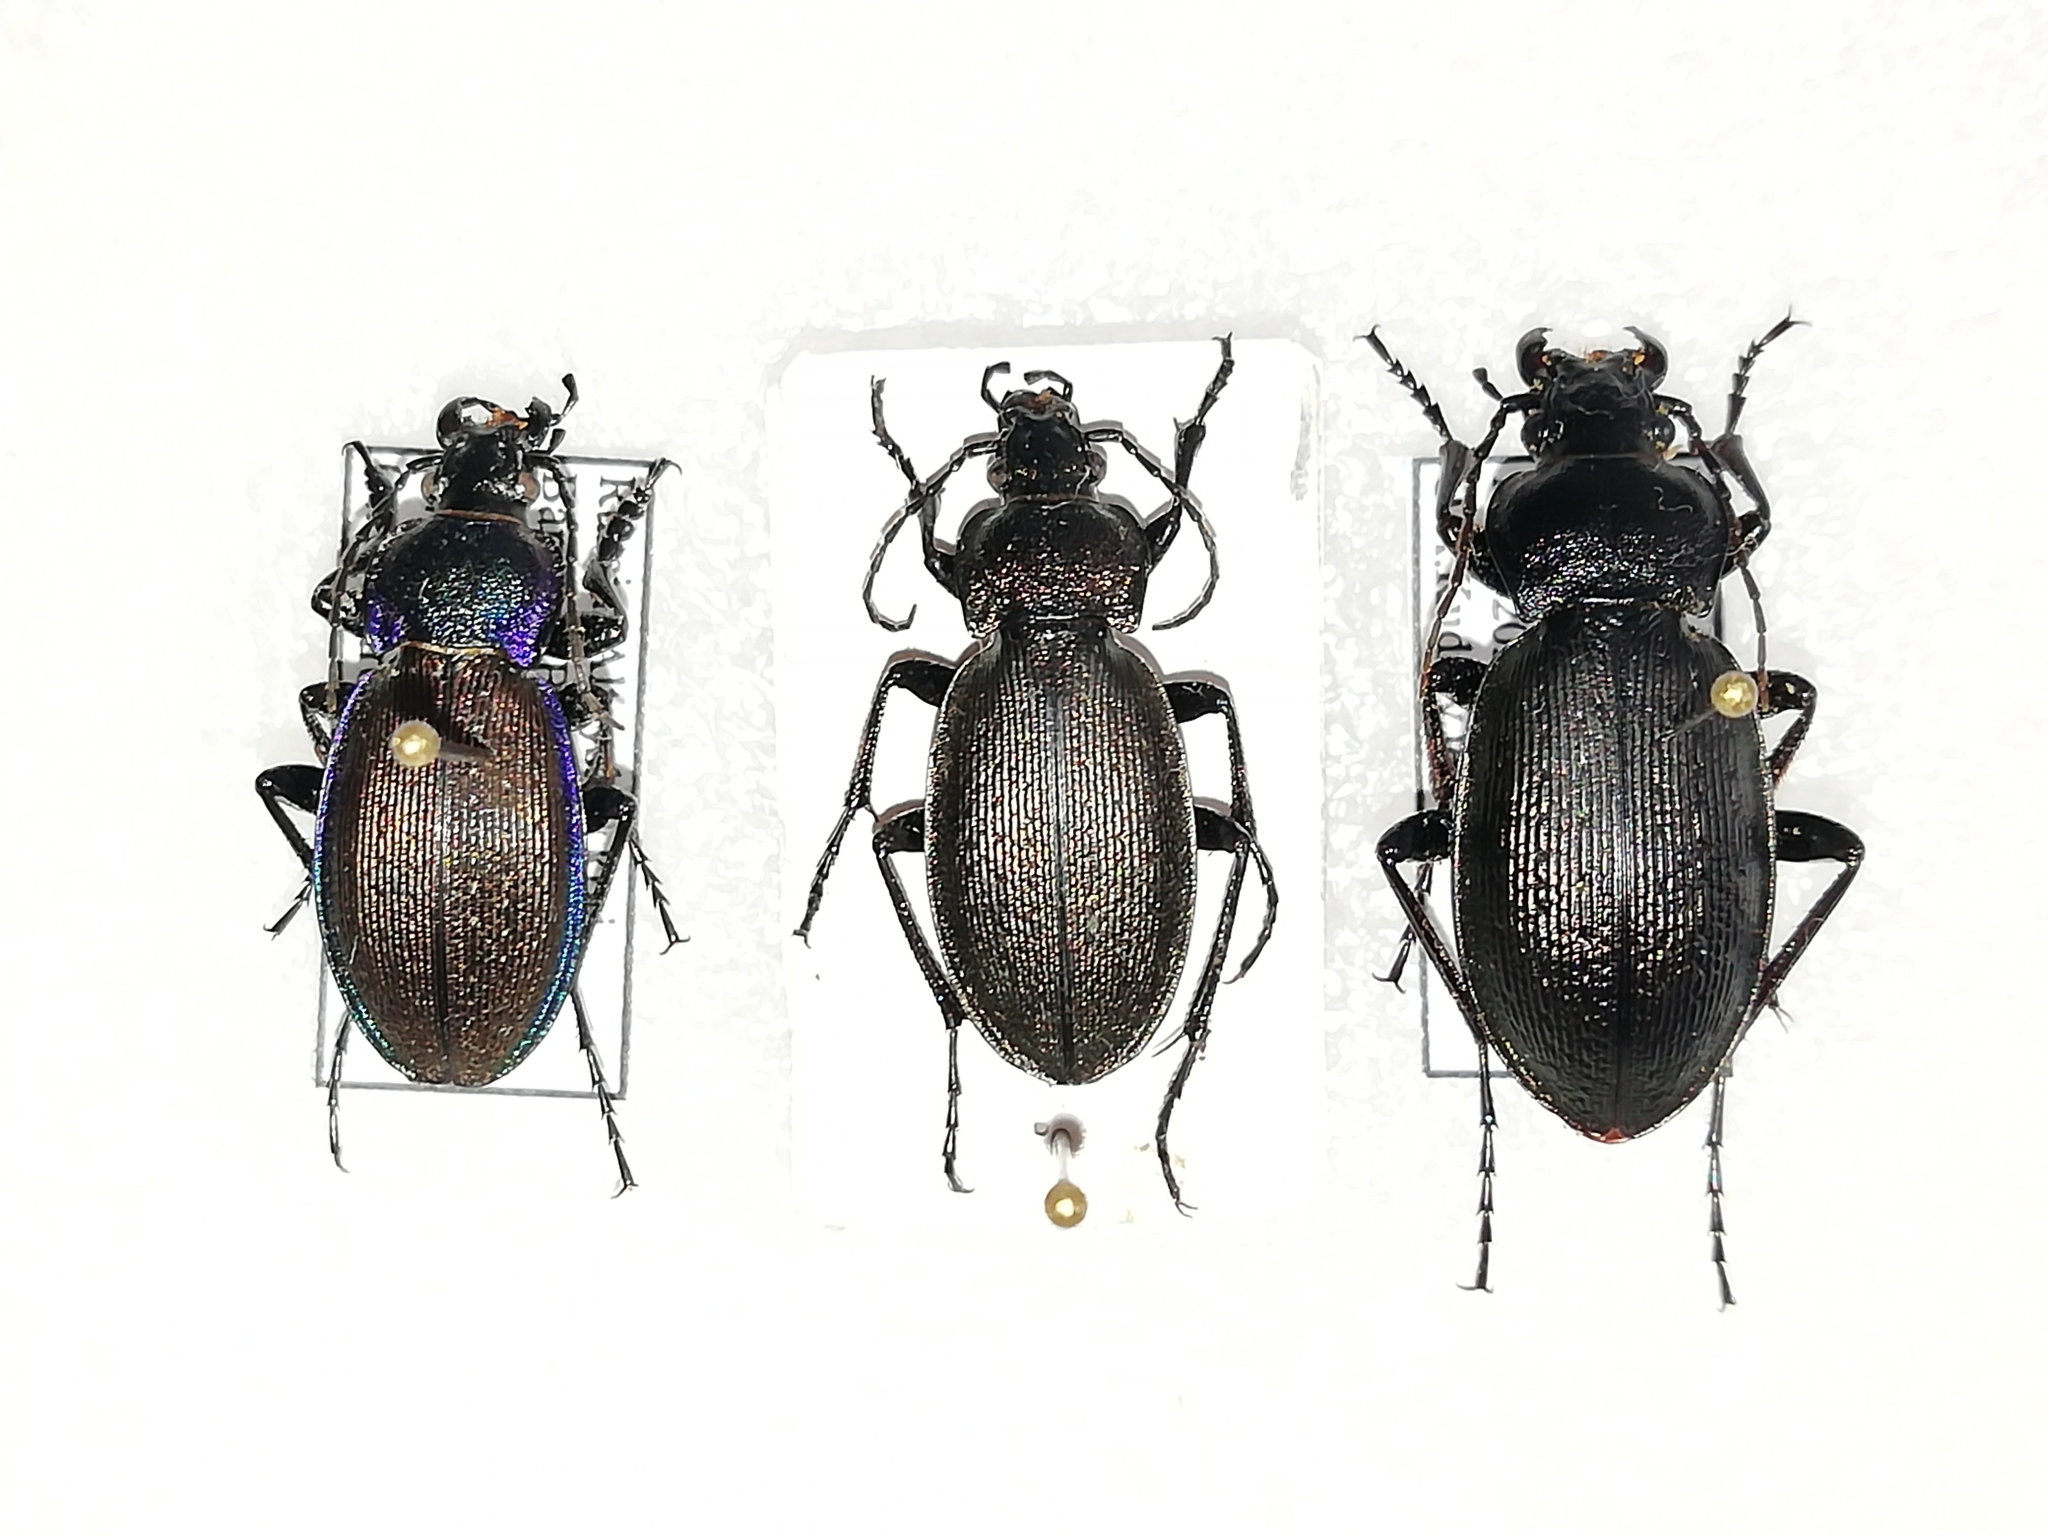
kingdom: Animalia
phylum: Arthropoda
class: Insecta
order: Coleoptera
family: Carabidae
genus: Carabus
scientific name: Carabus regalis
